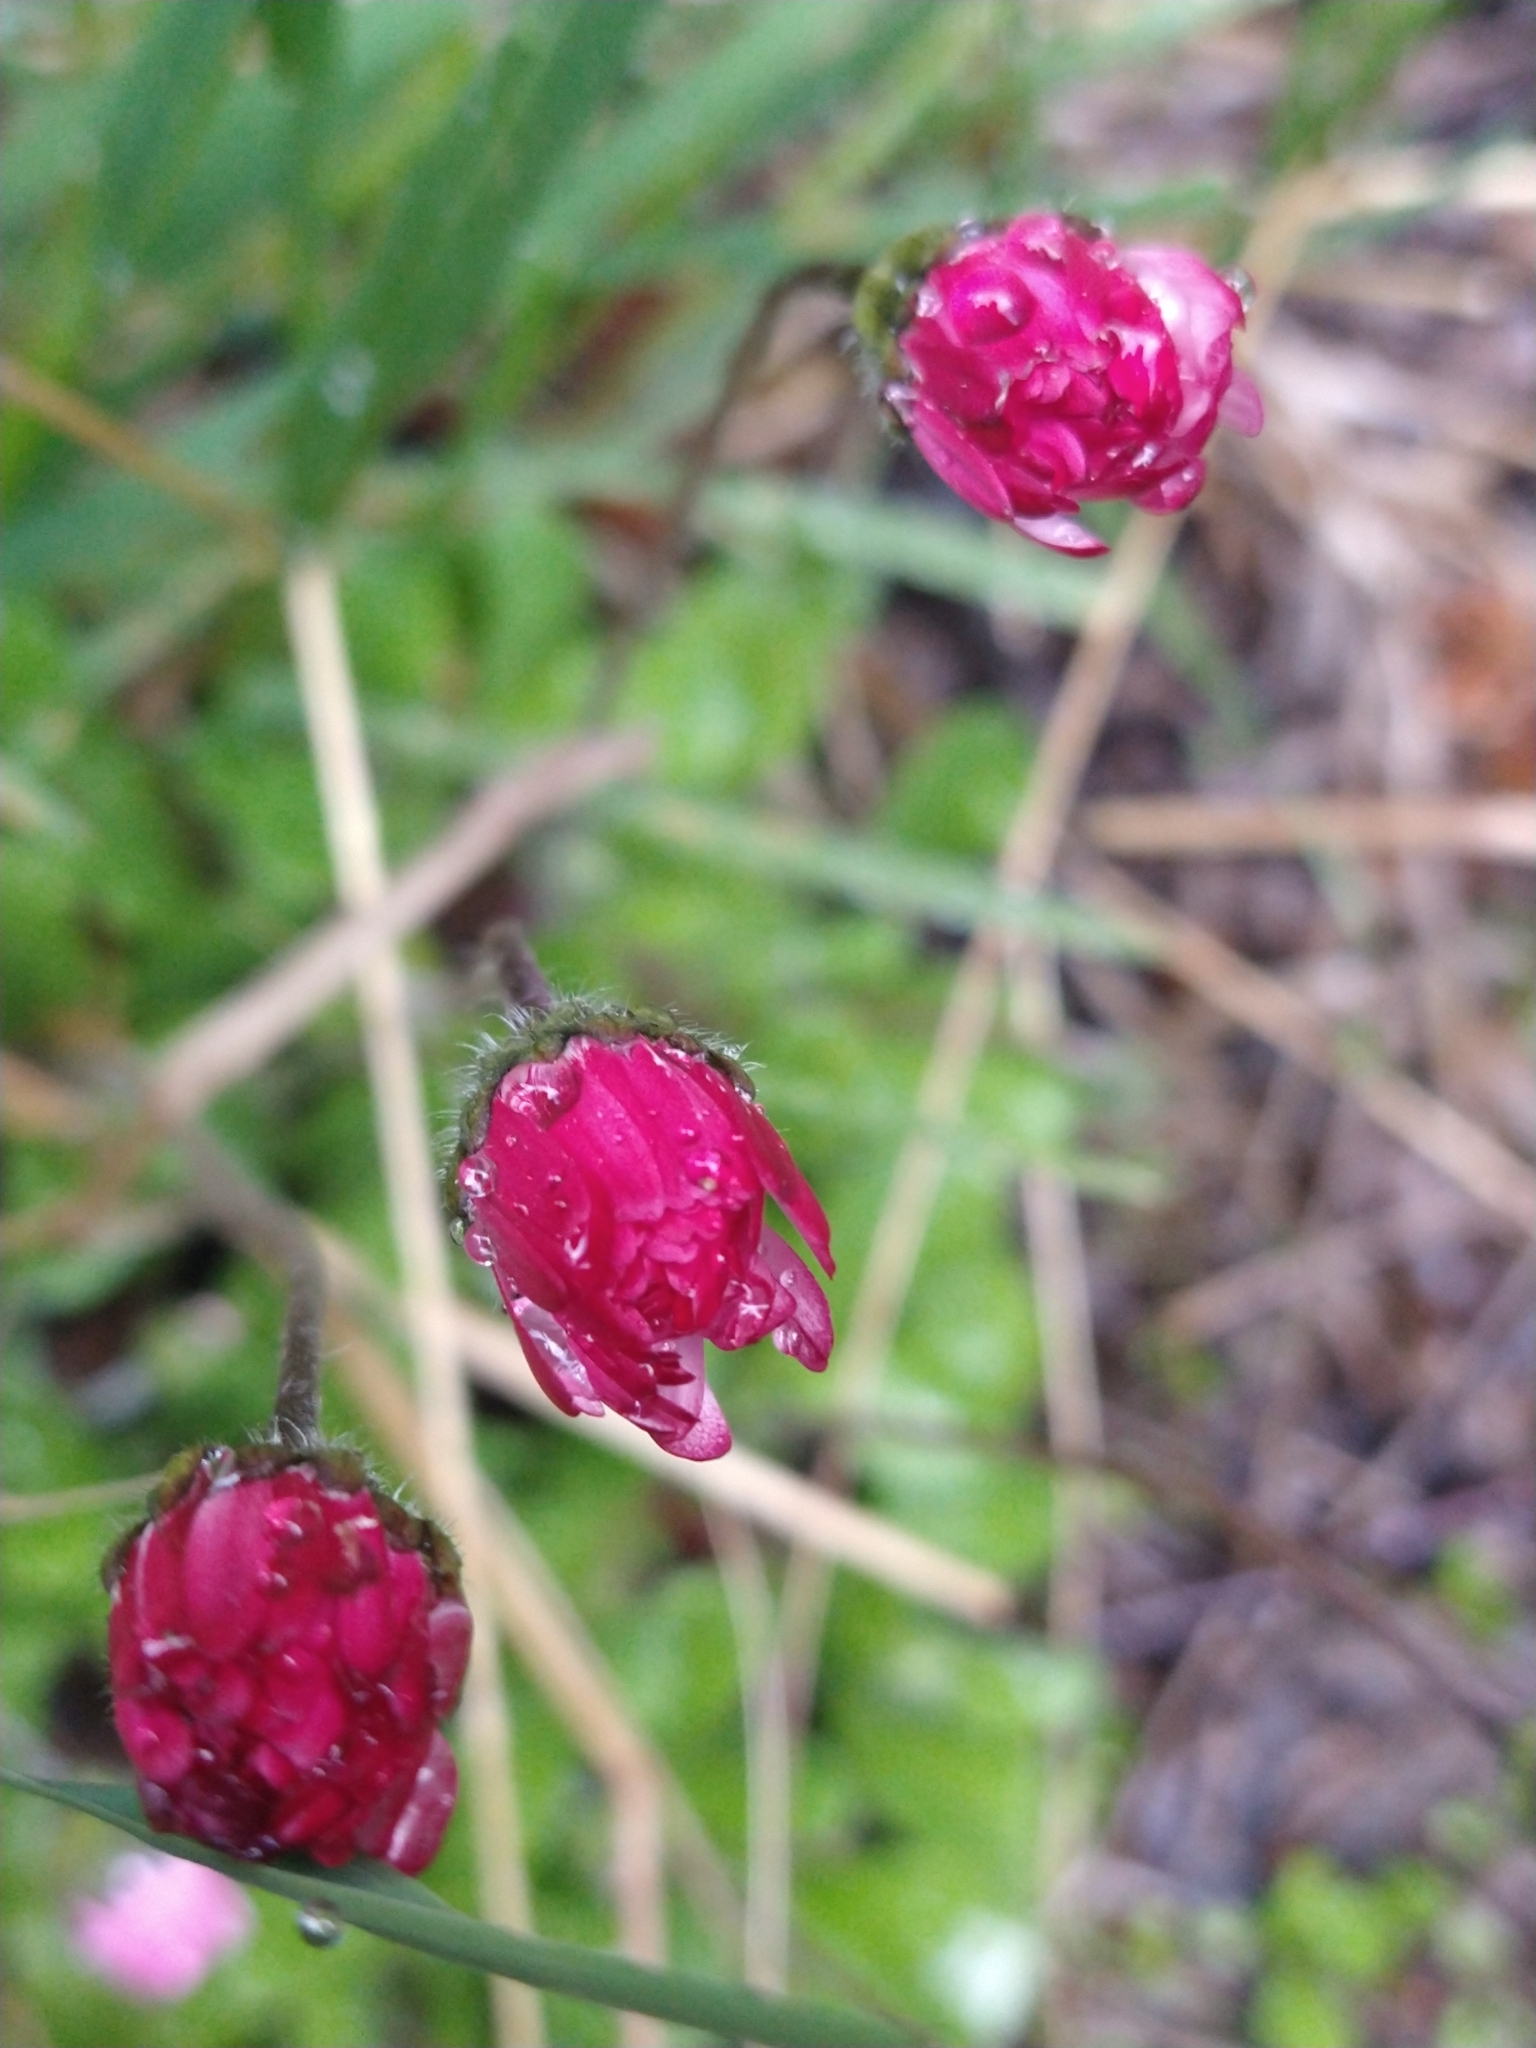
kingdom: Plantae
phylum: Tracheophyta
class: Magnoliopsida
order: Asterales
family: Asteraceae
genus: Bellis
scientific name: Bellis perennis
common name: Lawndaisy
